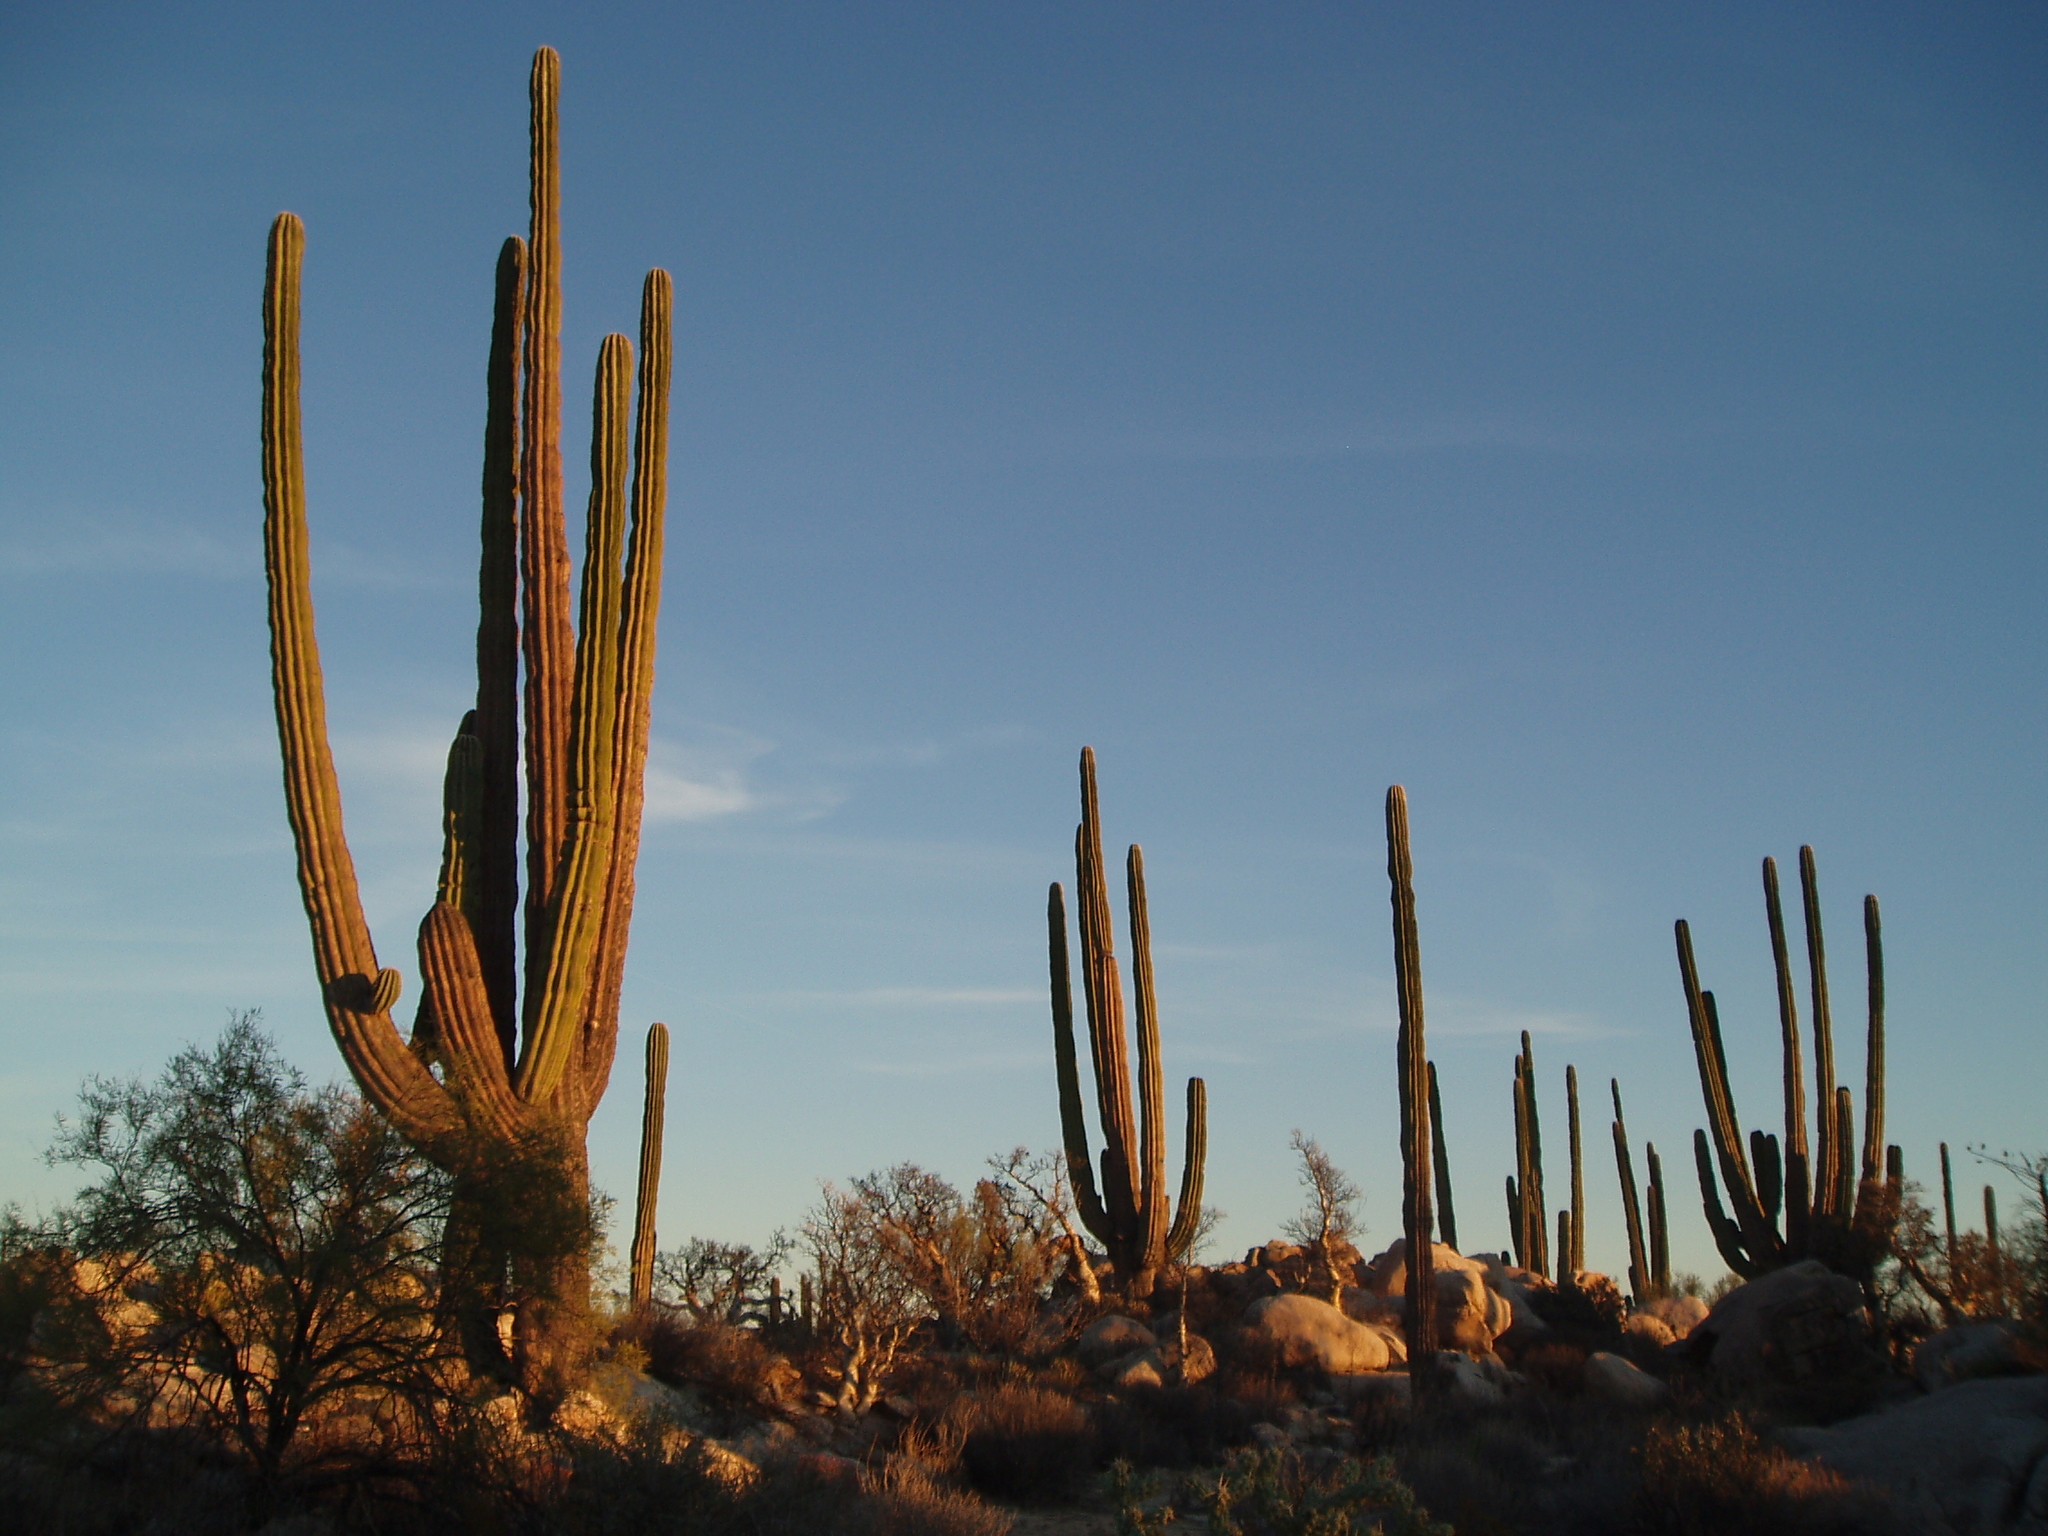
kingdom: Plantae
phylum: Tracheophyta
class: Magnoliopsida
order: Caryophyllales
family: Cactaceae
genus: Pachycereus
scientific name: Pachycereus pringlei
